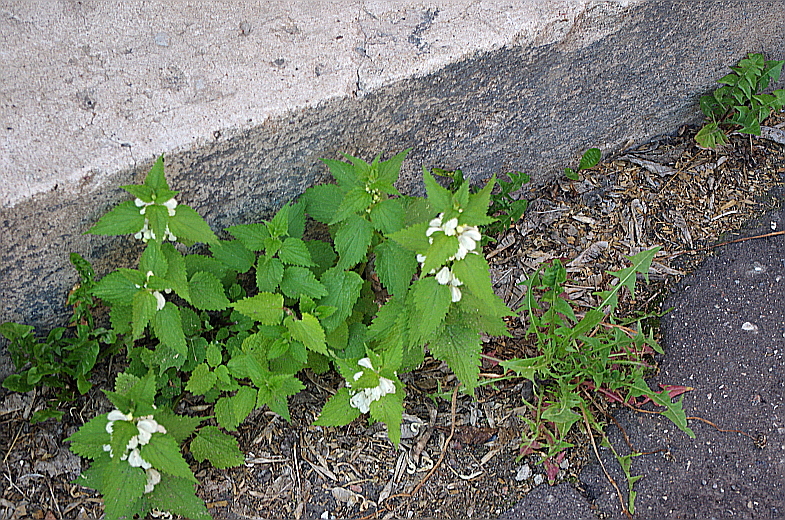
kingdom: Plantae
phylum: Tracheophyta
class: Magnoliopsida
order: Lamiales
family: Lamiaceae
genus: Lamium
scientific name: Lamium album
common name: White dead-nettle
